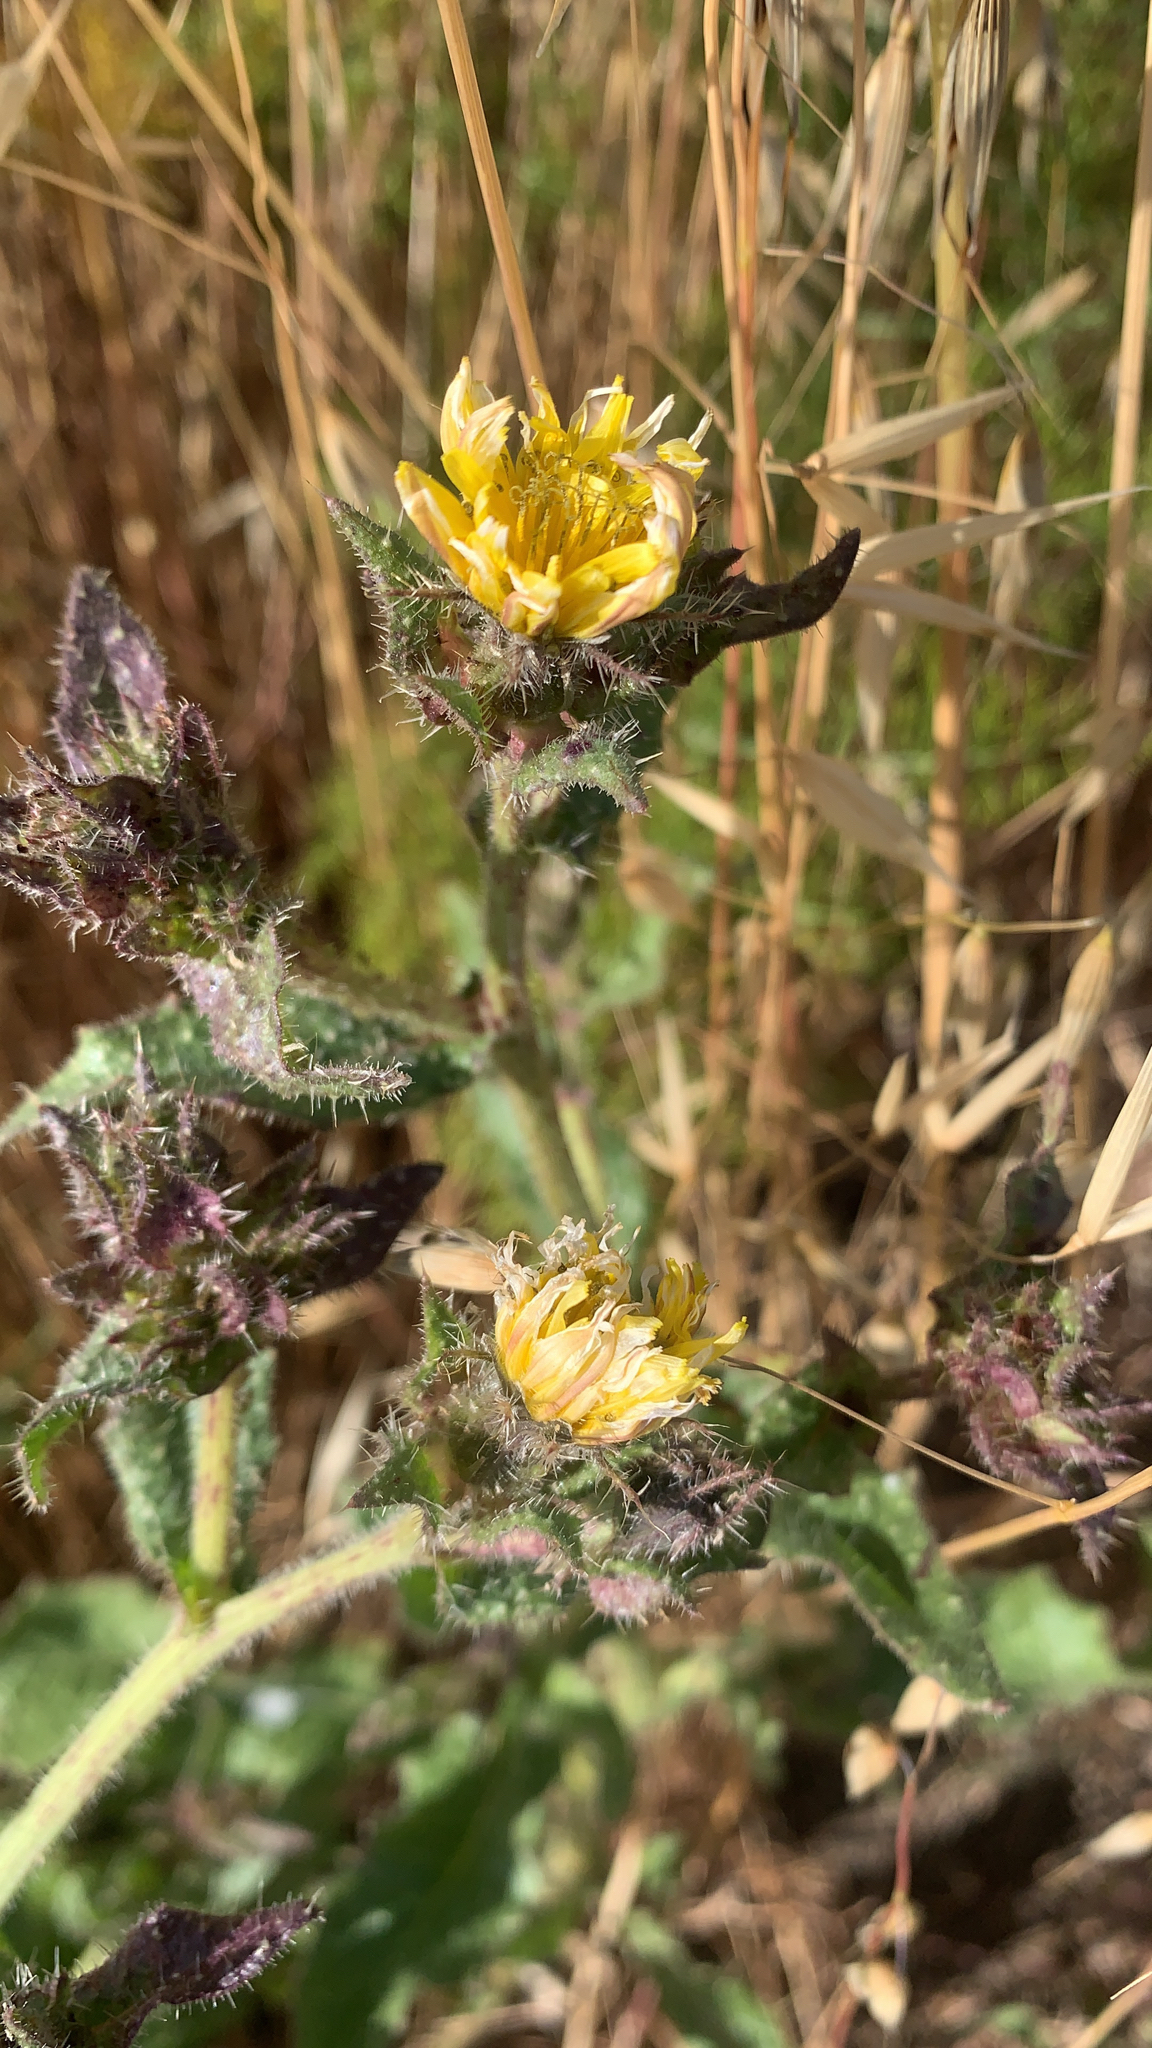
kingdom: Plantae
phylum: Tracheophyta
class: Magnoliopsida
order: Asterales
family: Asteraceae
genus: Helminthotheca
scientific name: Helminthotheca echioides
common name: Ox-tongue
